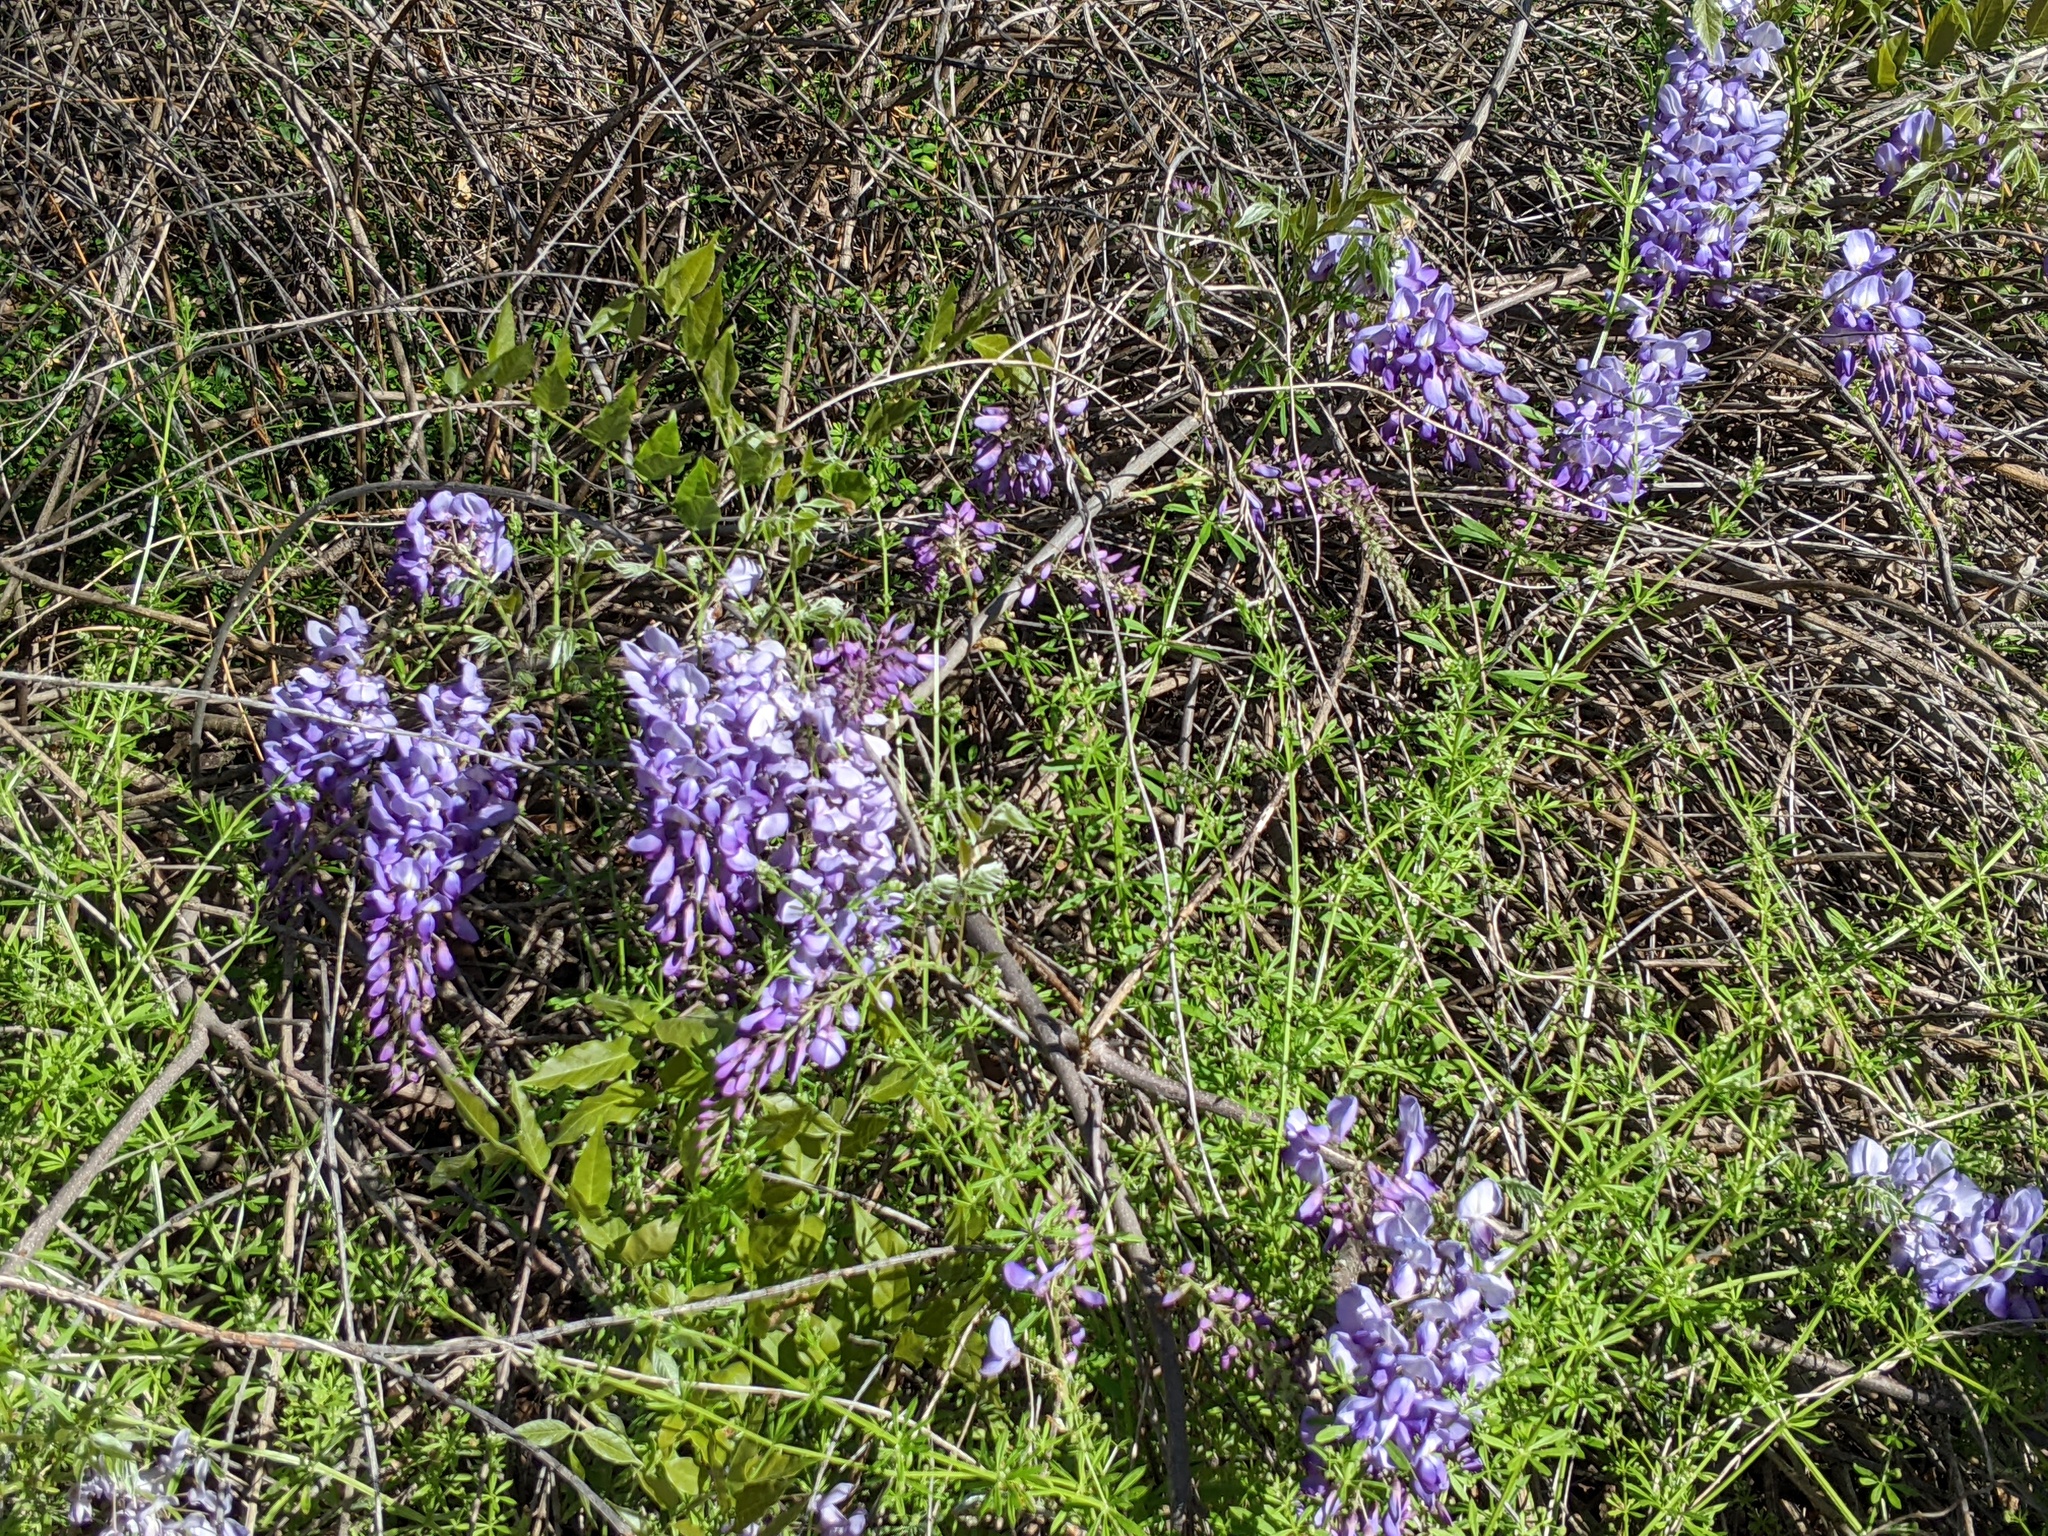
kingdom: Plantae
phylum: Tracheophyta
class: Magnoliopsida
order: Fabales
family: Fabaceae
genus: Wisteria
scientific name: Wisteria sinensis
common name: Chinese wisteria
